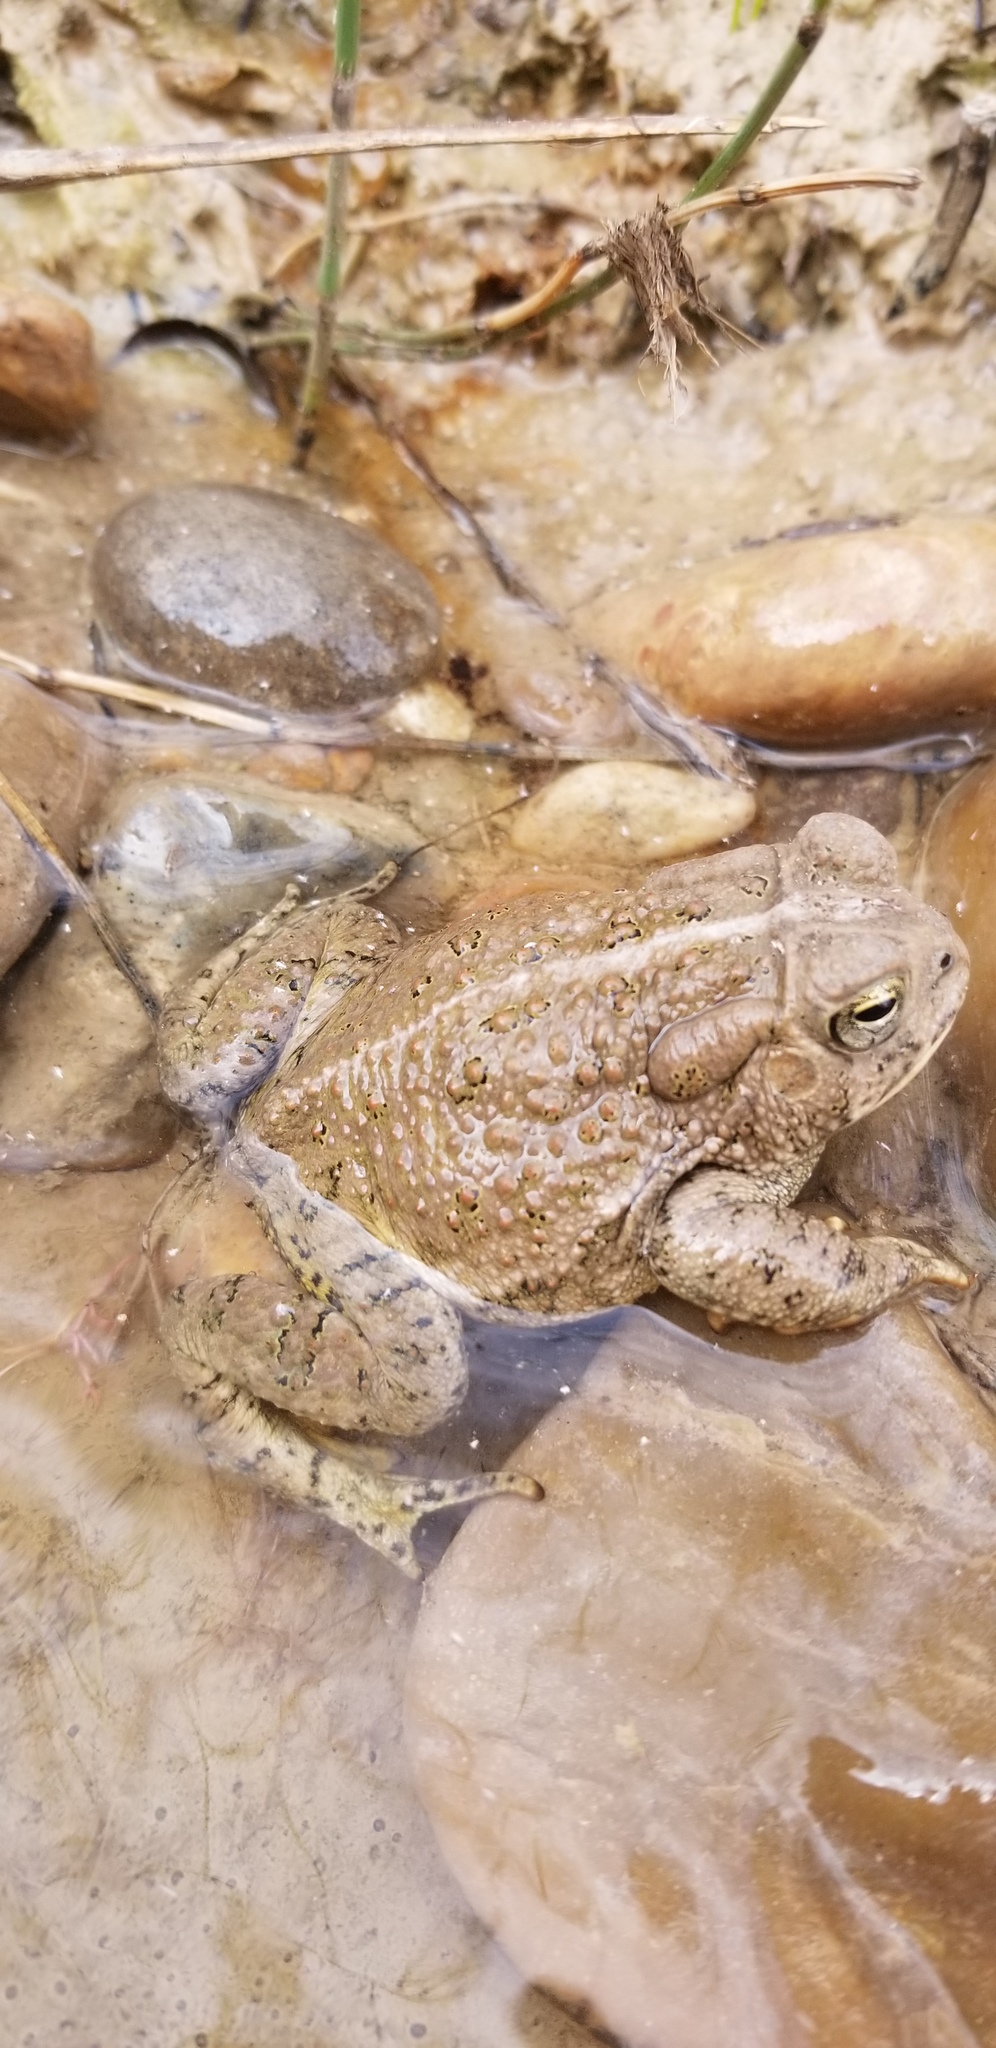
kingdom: Animalia
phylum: Chordata
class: Amphibia
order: Anura
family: Bufonidae
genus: Anaxyrus
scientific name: Anaxyrus woodhousii
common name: Woodhouse's toad
